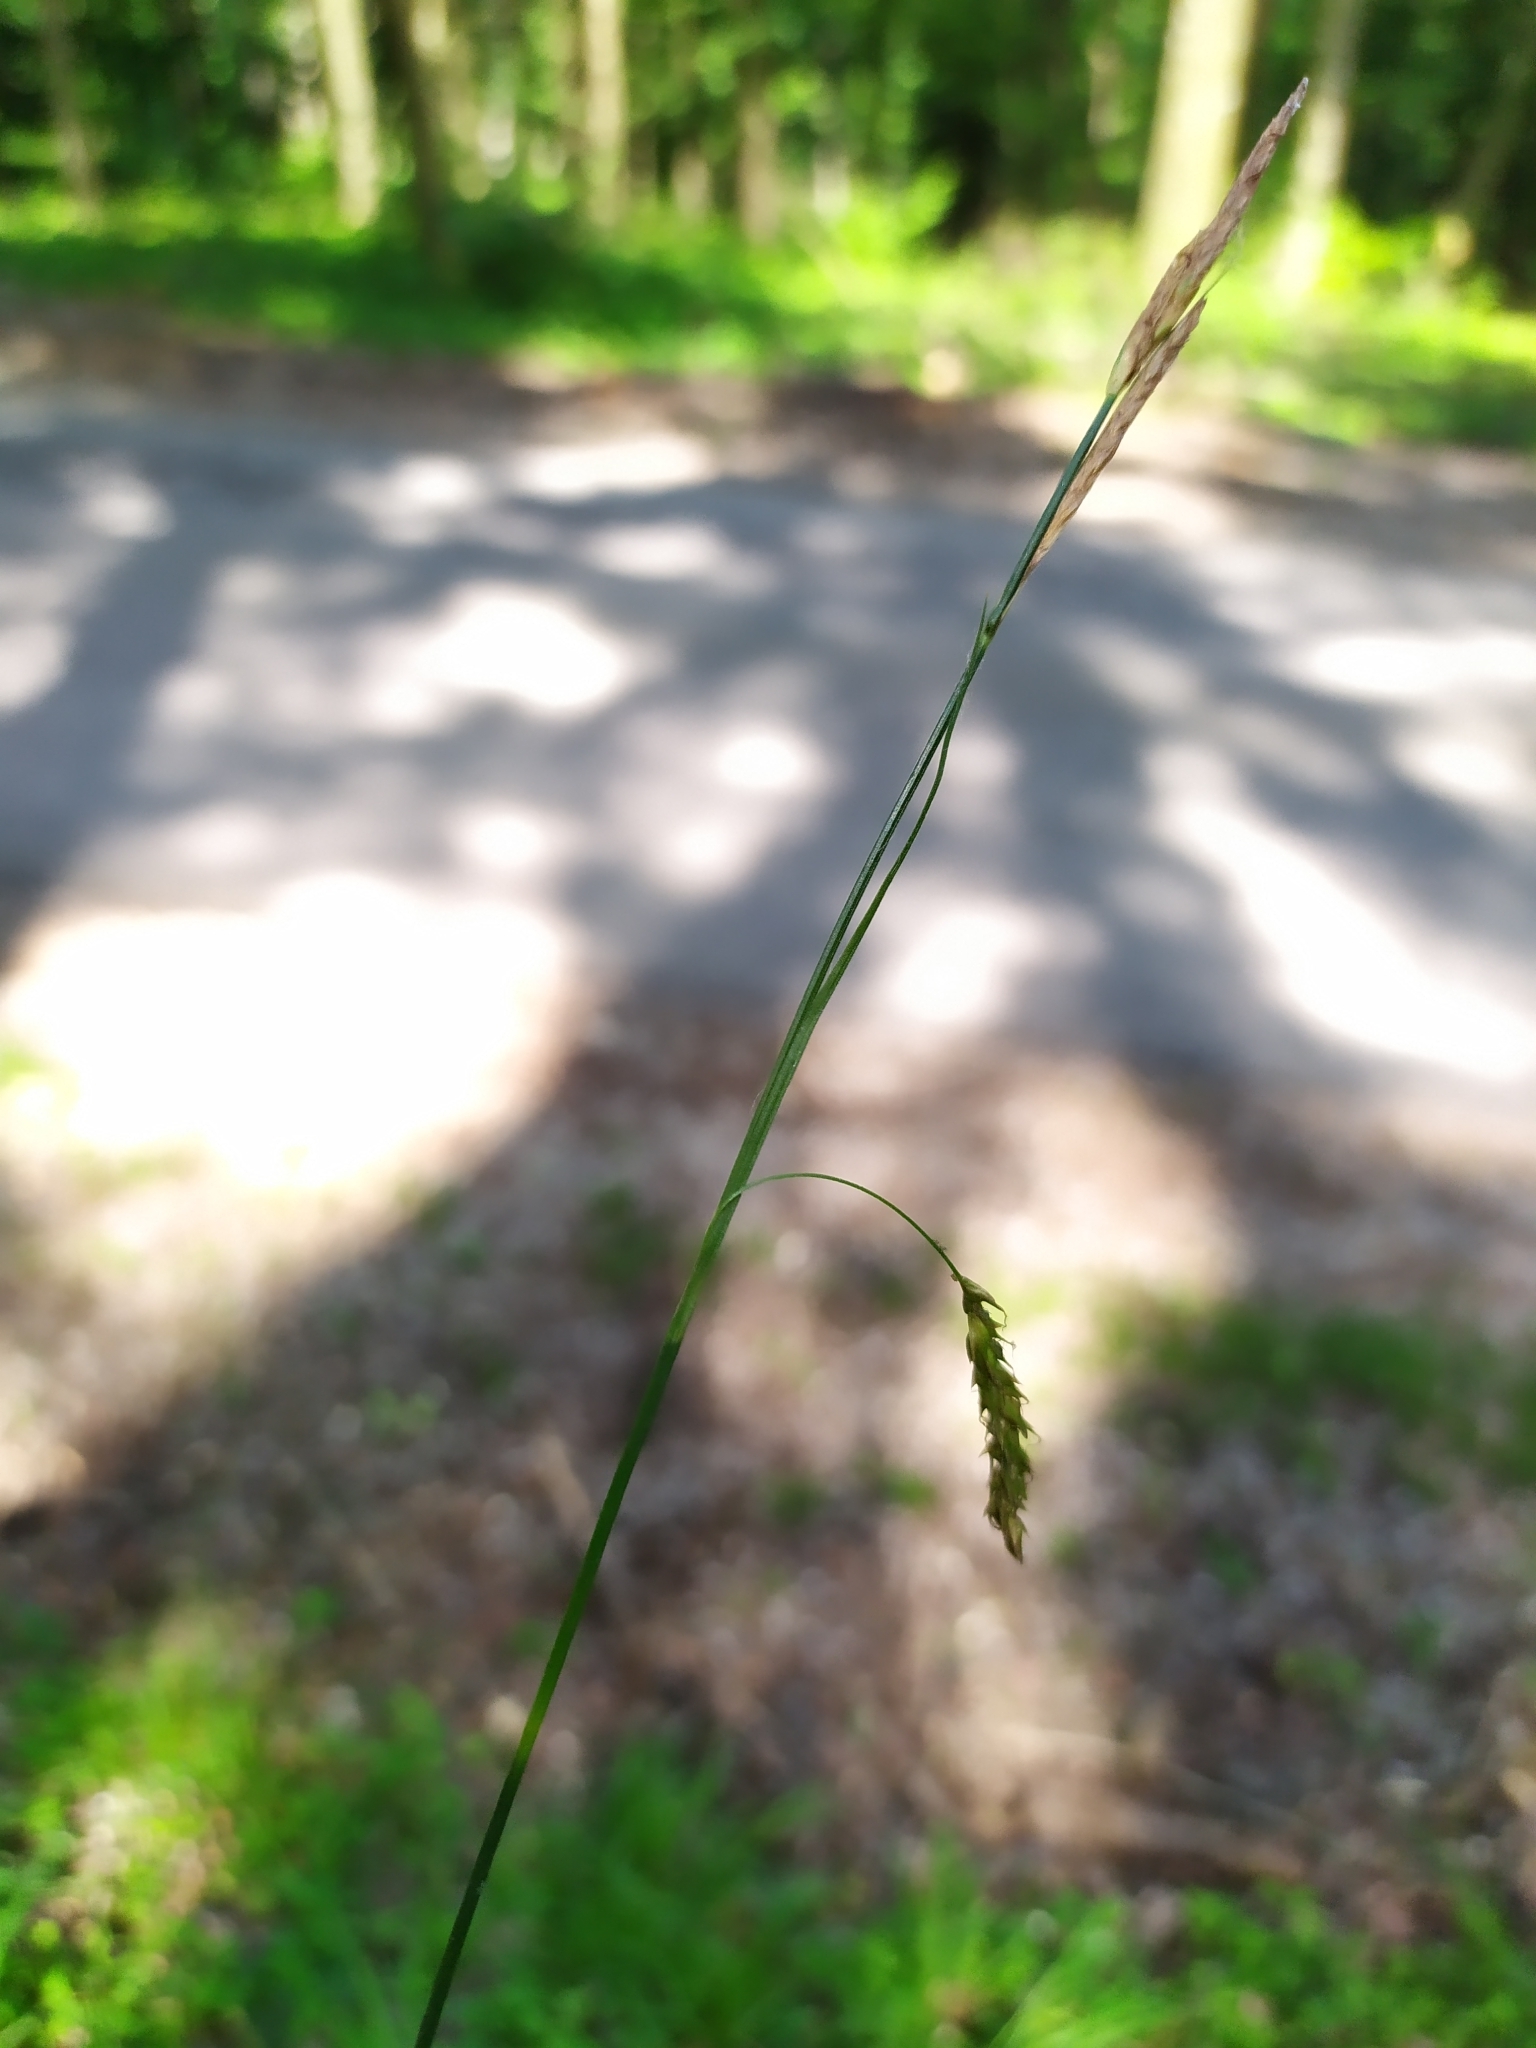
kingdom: Plantae
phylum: Tracheophyta
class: Liliopsida
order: Poales
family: Cyperaceae
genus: Carex
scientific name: Carex sylvatica
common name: Wood-sedge
